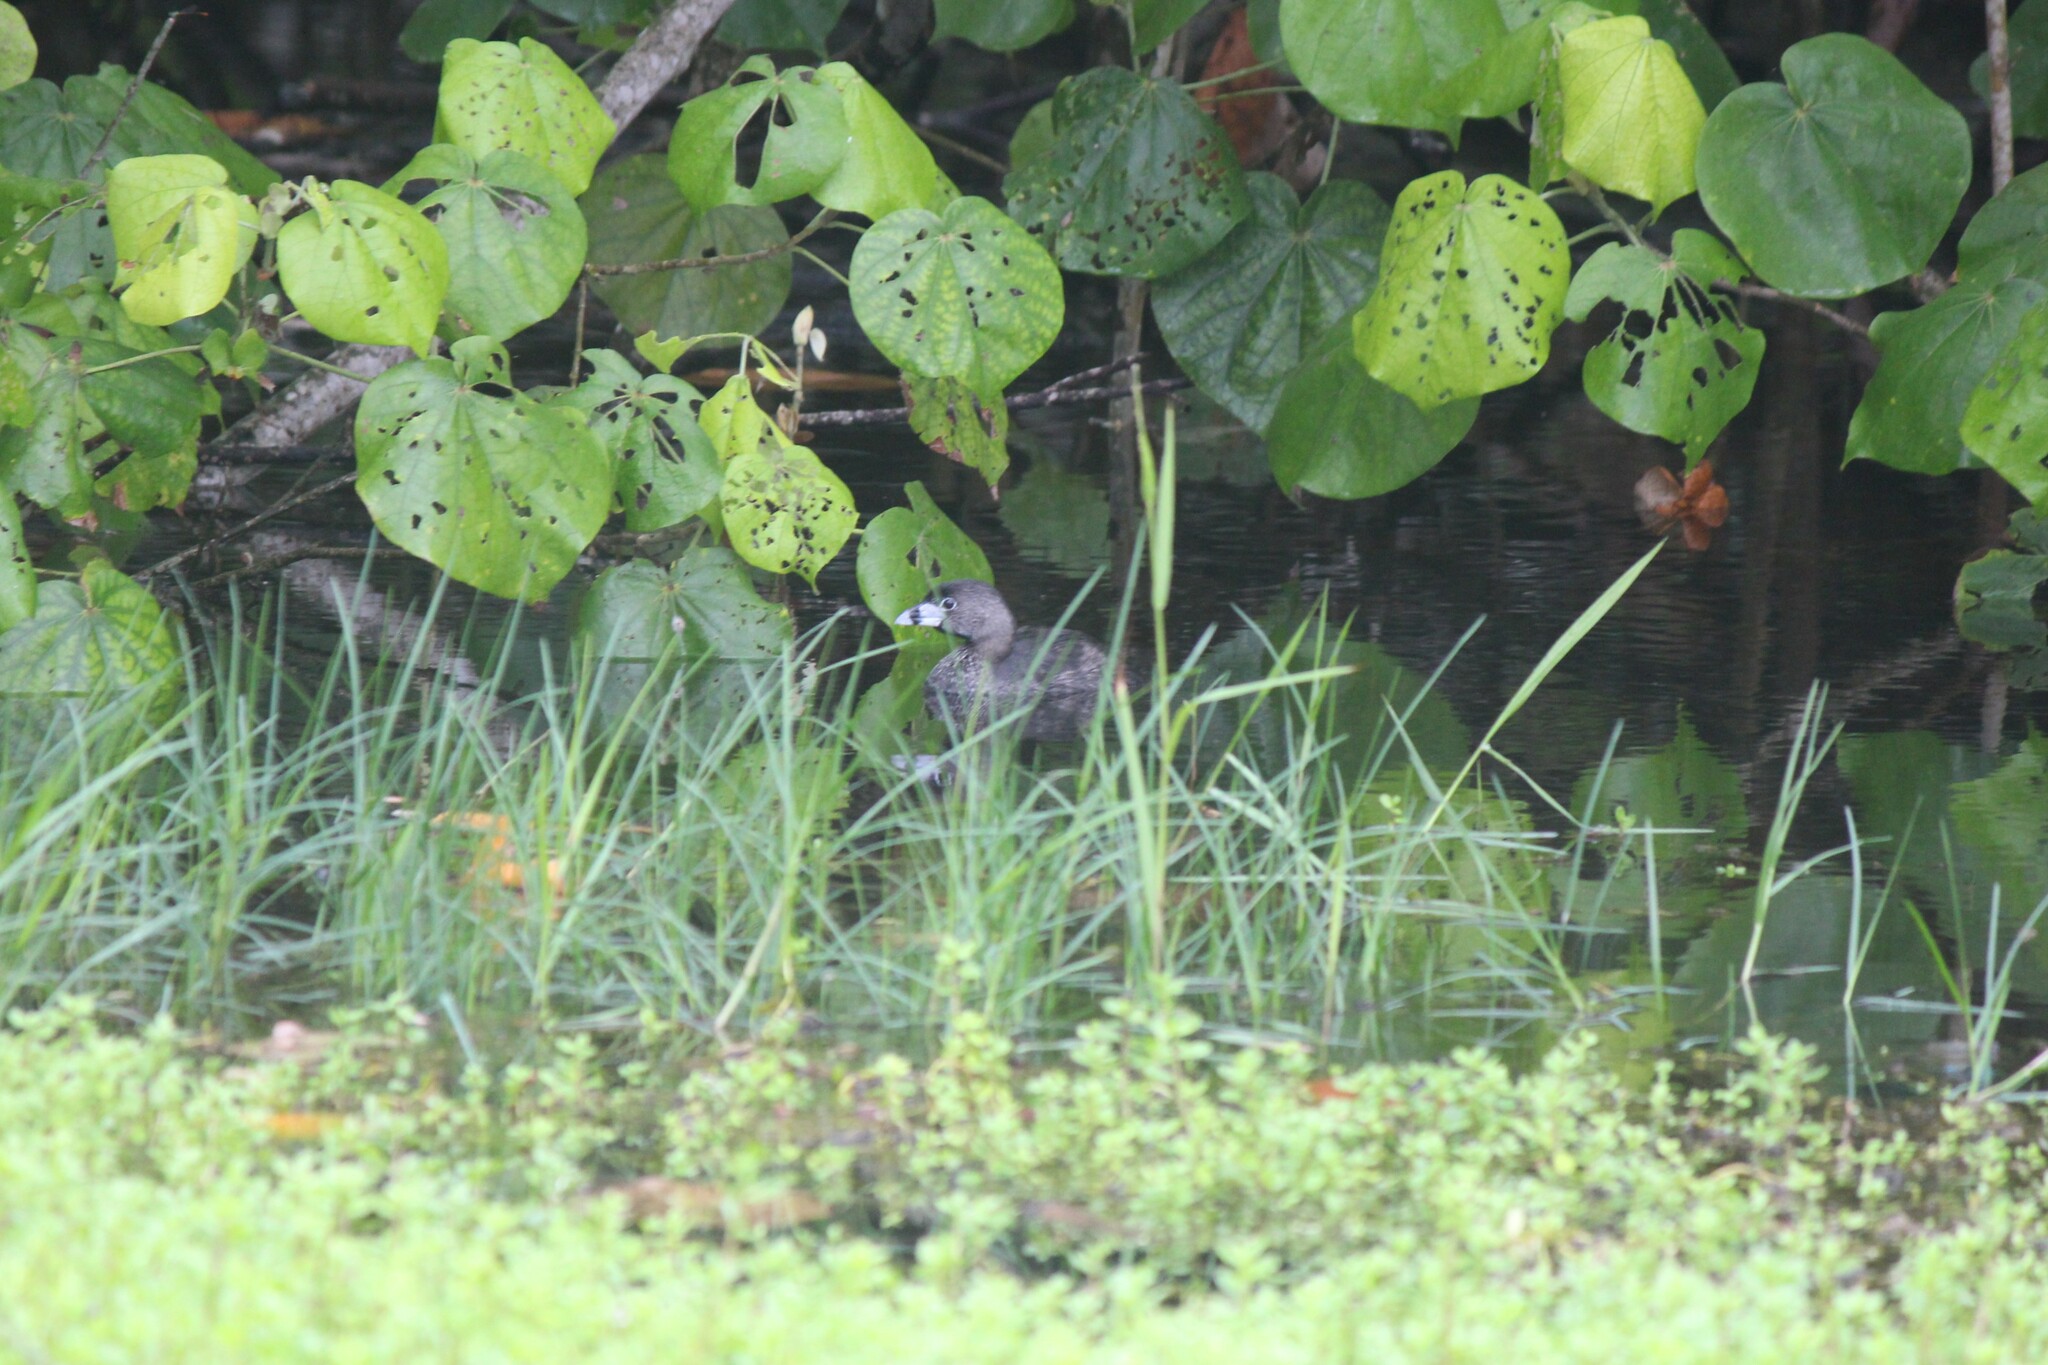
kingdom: Animalia
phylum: Chordata
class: Aves
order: Podicipediformes
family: Podicipedidae
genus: Podilymbus
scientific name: Podilymbus podiceps
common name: Pied-billed grebe
